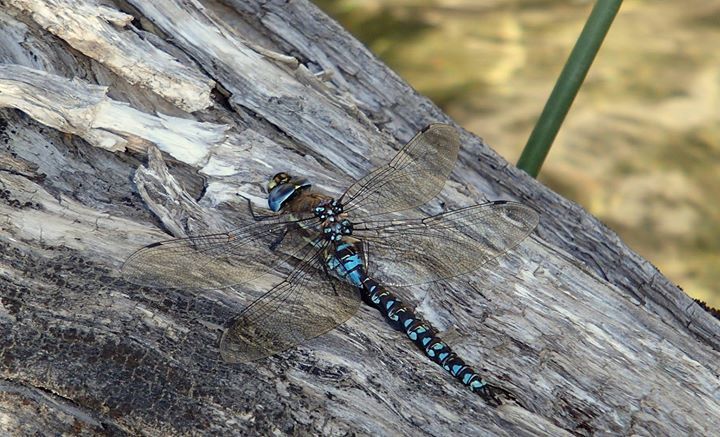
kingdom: Animalia
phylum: Arthropoda
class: Insecta
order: Odonata
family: Aeshnidae
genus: Rhionaeschna
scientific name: Rhionaeschna variegata
